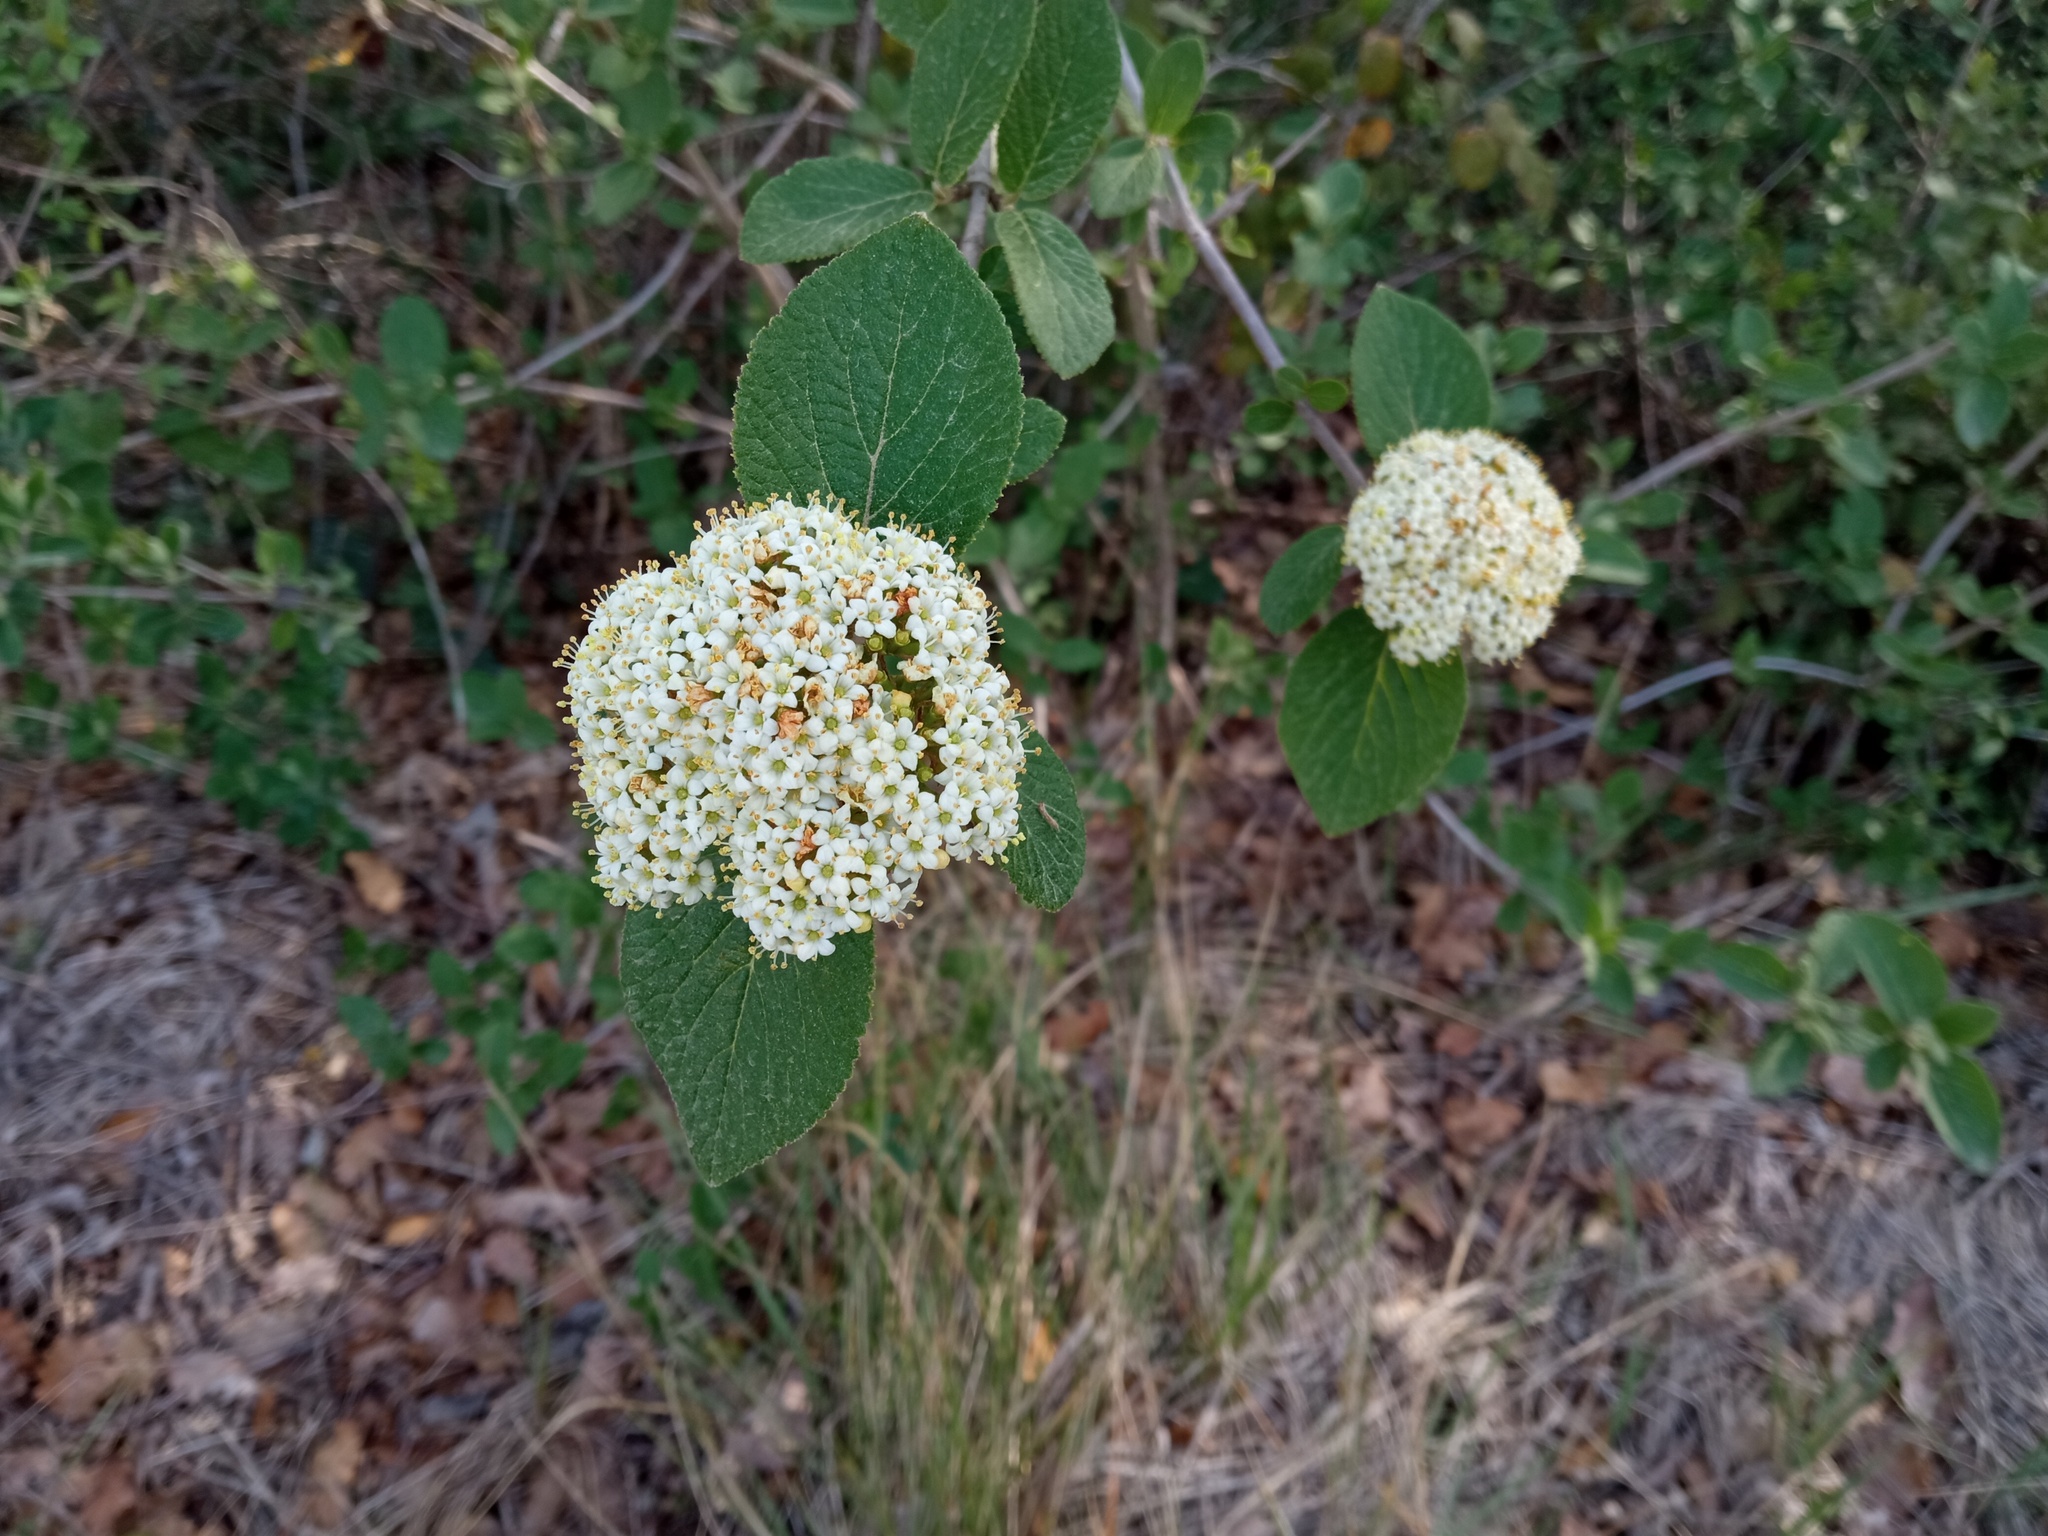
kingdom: Plantae
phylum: Tracheophyta
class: Magnoliopsida
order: Dipsacales
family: Viburnaceae
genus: Viburnum
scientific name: Viburnum lantana
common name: Wayfaring tree
